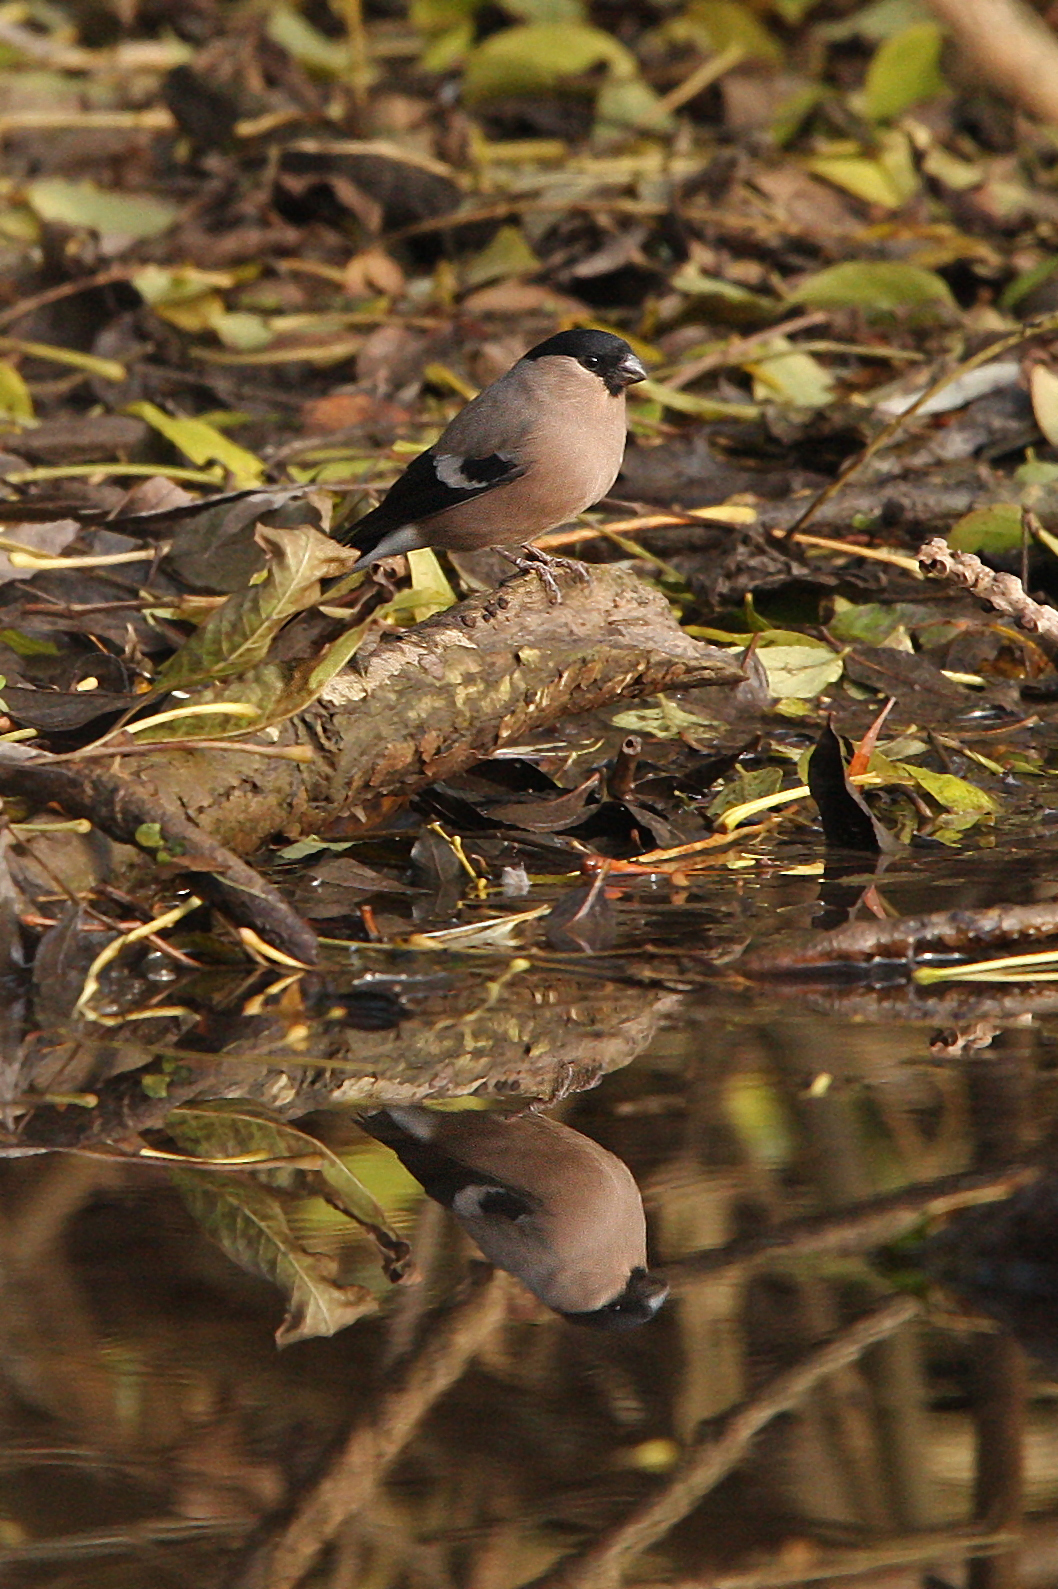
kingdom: Animalia
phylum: Chordata
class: Aves
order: Passeriformes
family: Fringillidae
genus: Pyrrhula
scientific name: Pyrrhula pyrrhula
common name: Eurasian bullfinch
